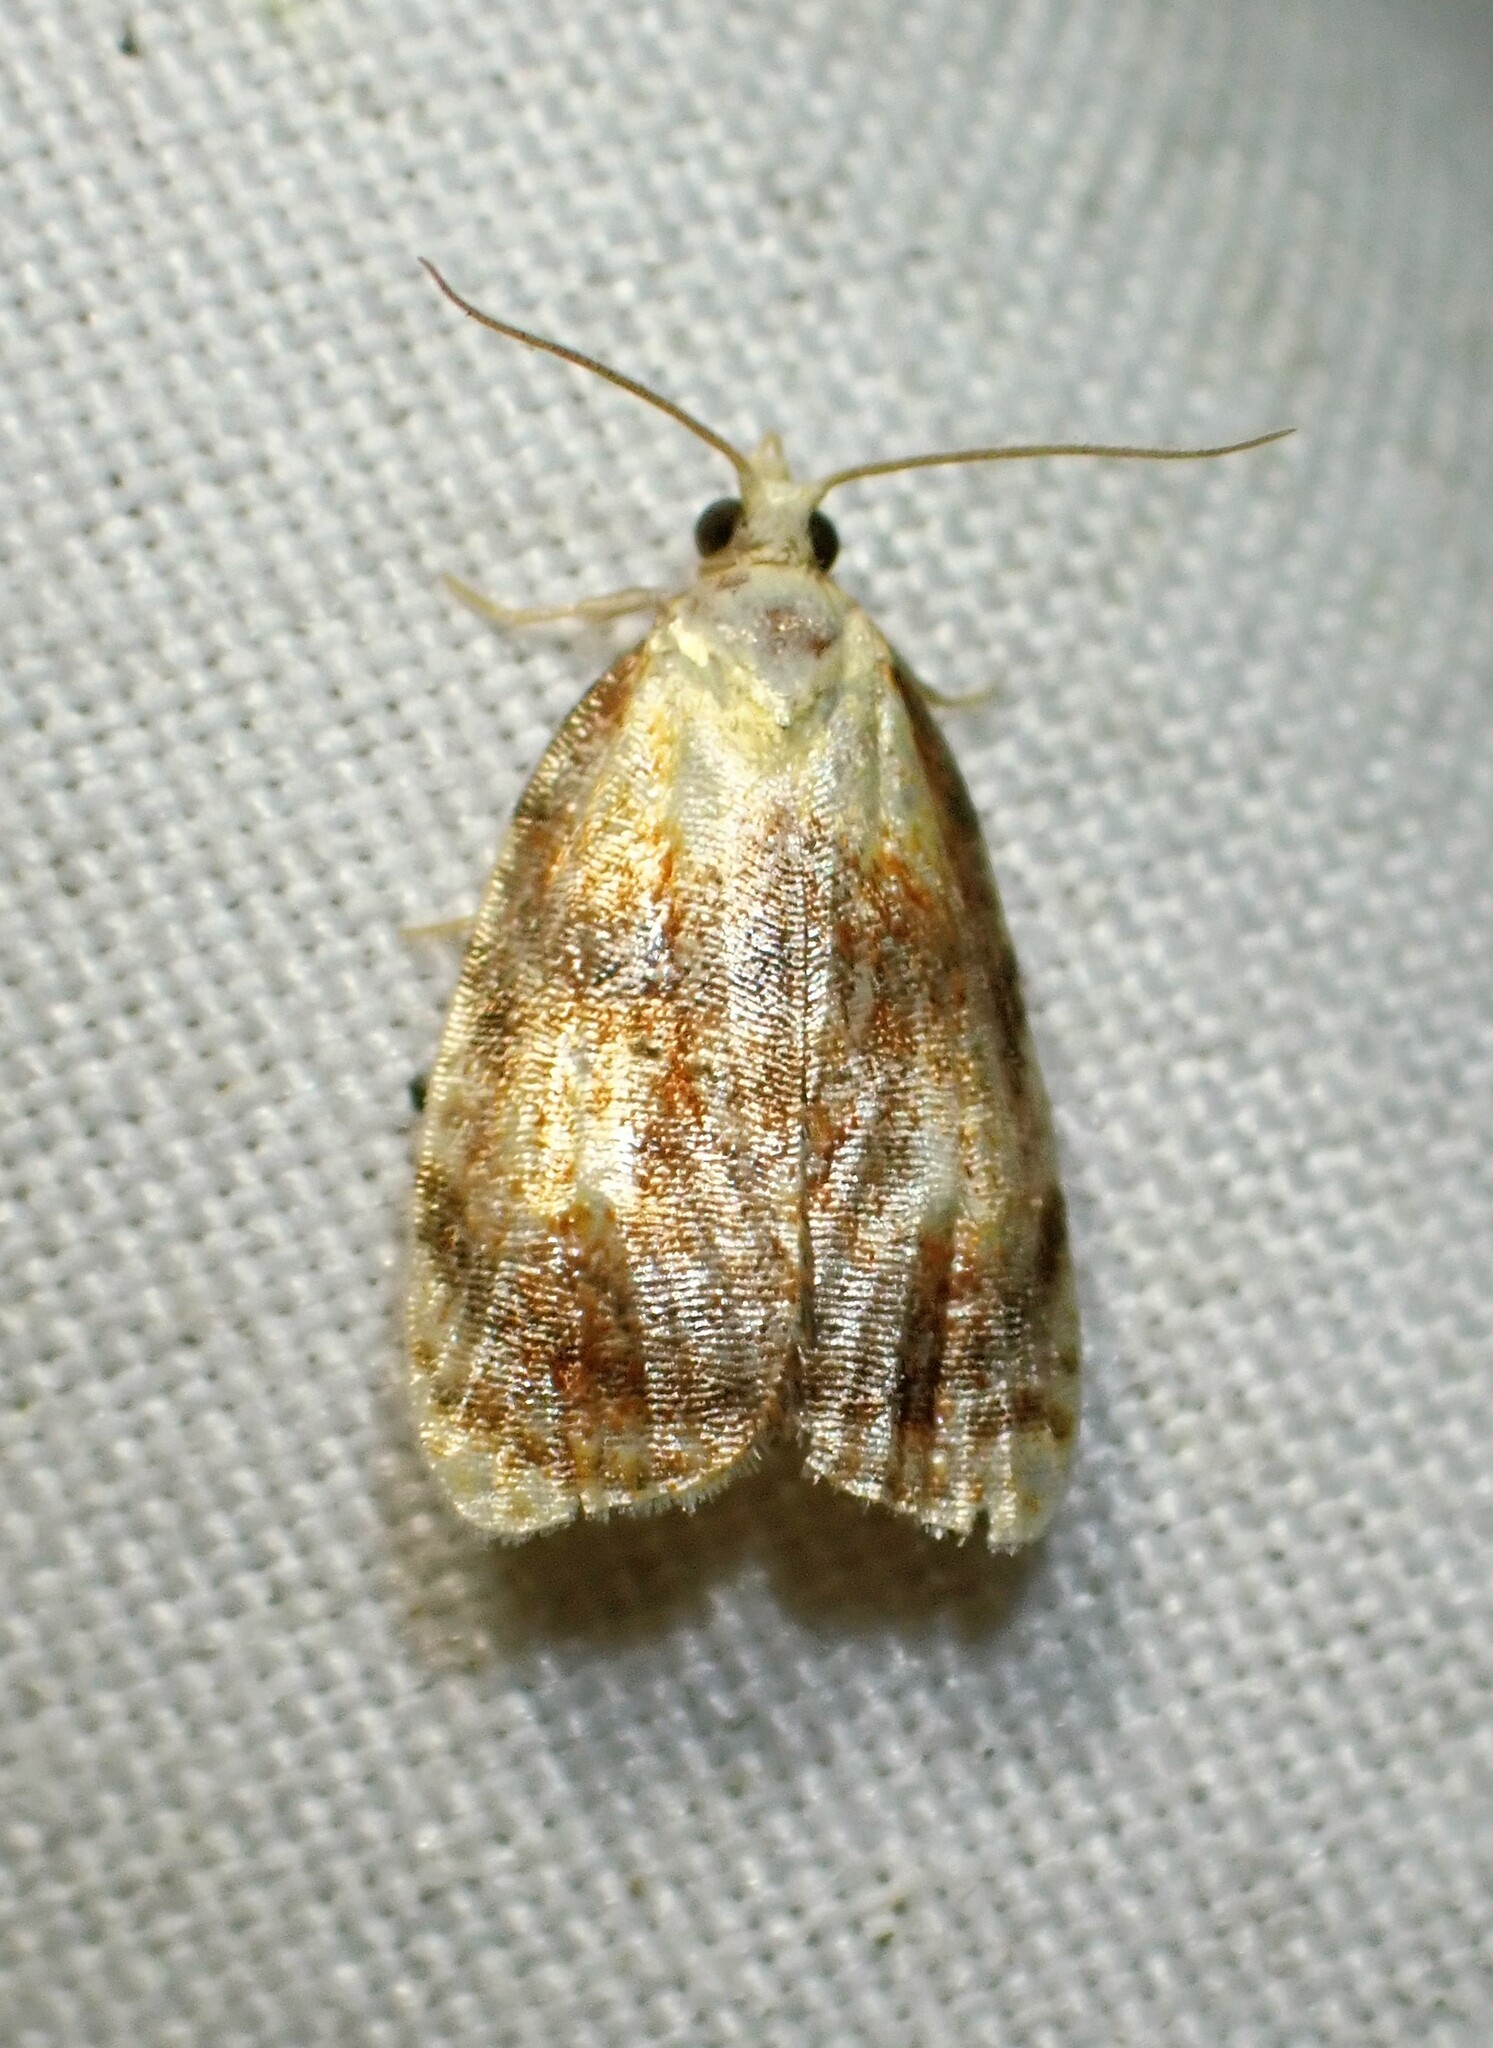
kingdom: Animalia
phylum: Arthropoda
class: Insecta
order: Lepidoptera
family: Tortricidae
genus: Acleris
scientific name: Acleris curvalana
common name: Blueberry leaftier moth
